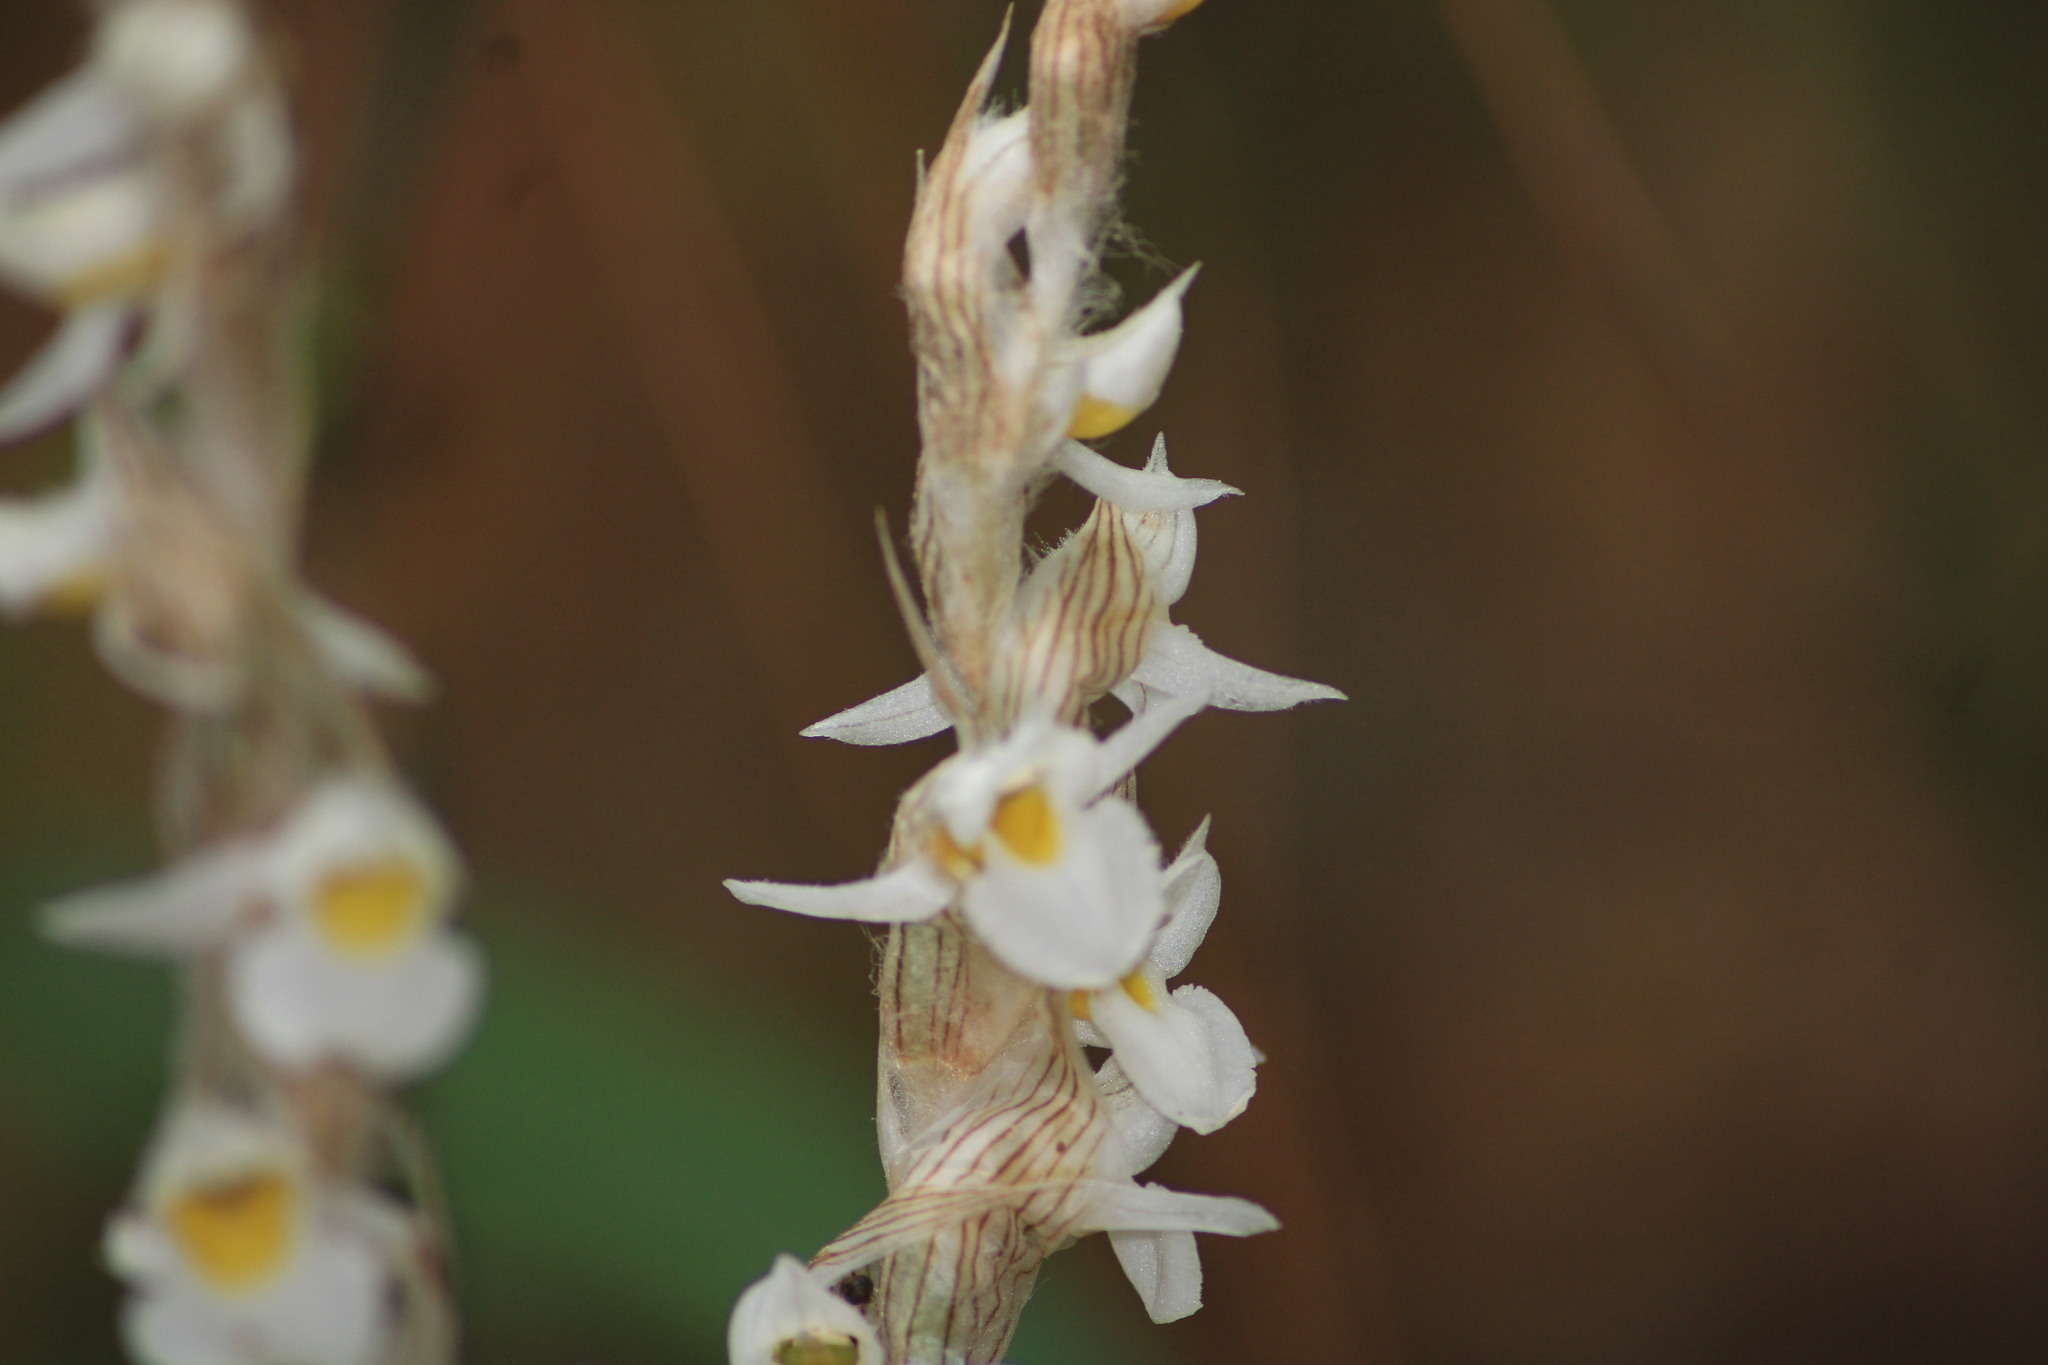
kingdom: Plantae
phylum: Tracheophyta
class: Liliopsida
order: Asparagales
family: Orchidaceae
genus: Deiregyne
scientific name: Deiregyne eriophora
